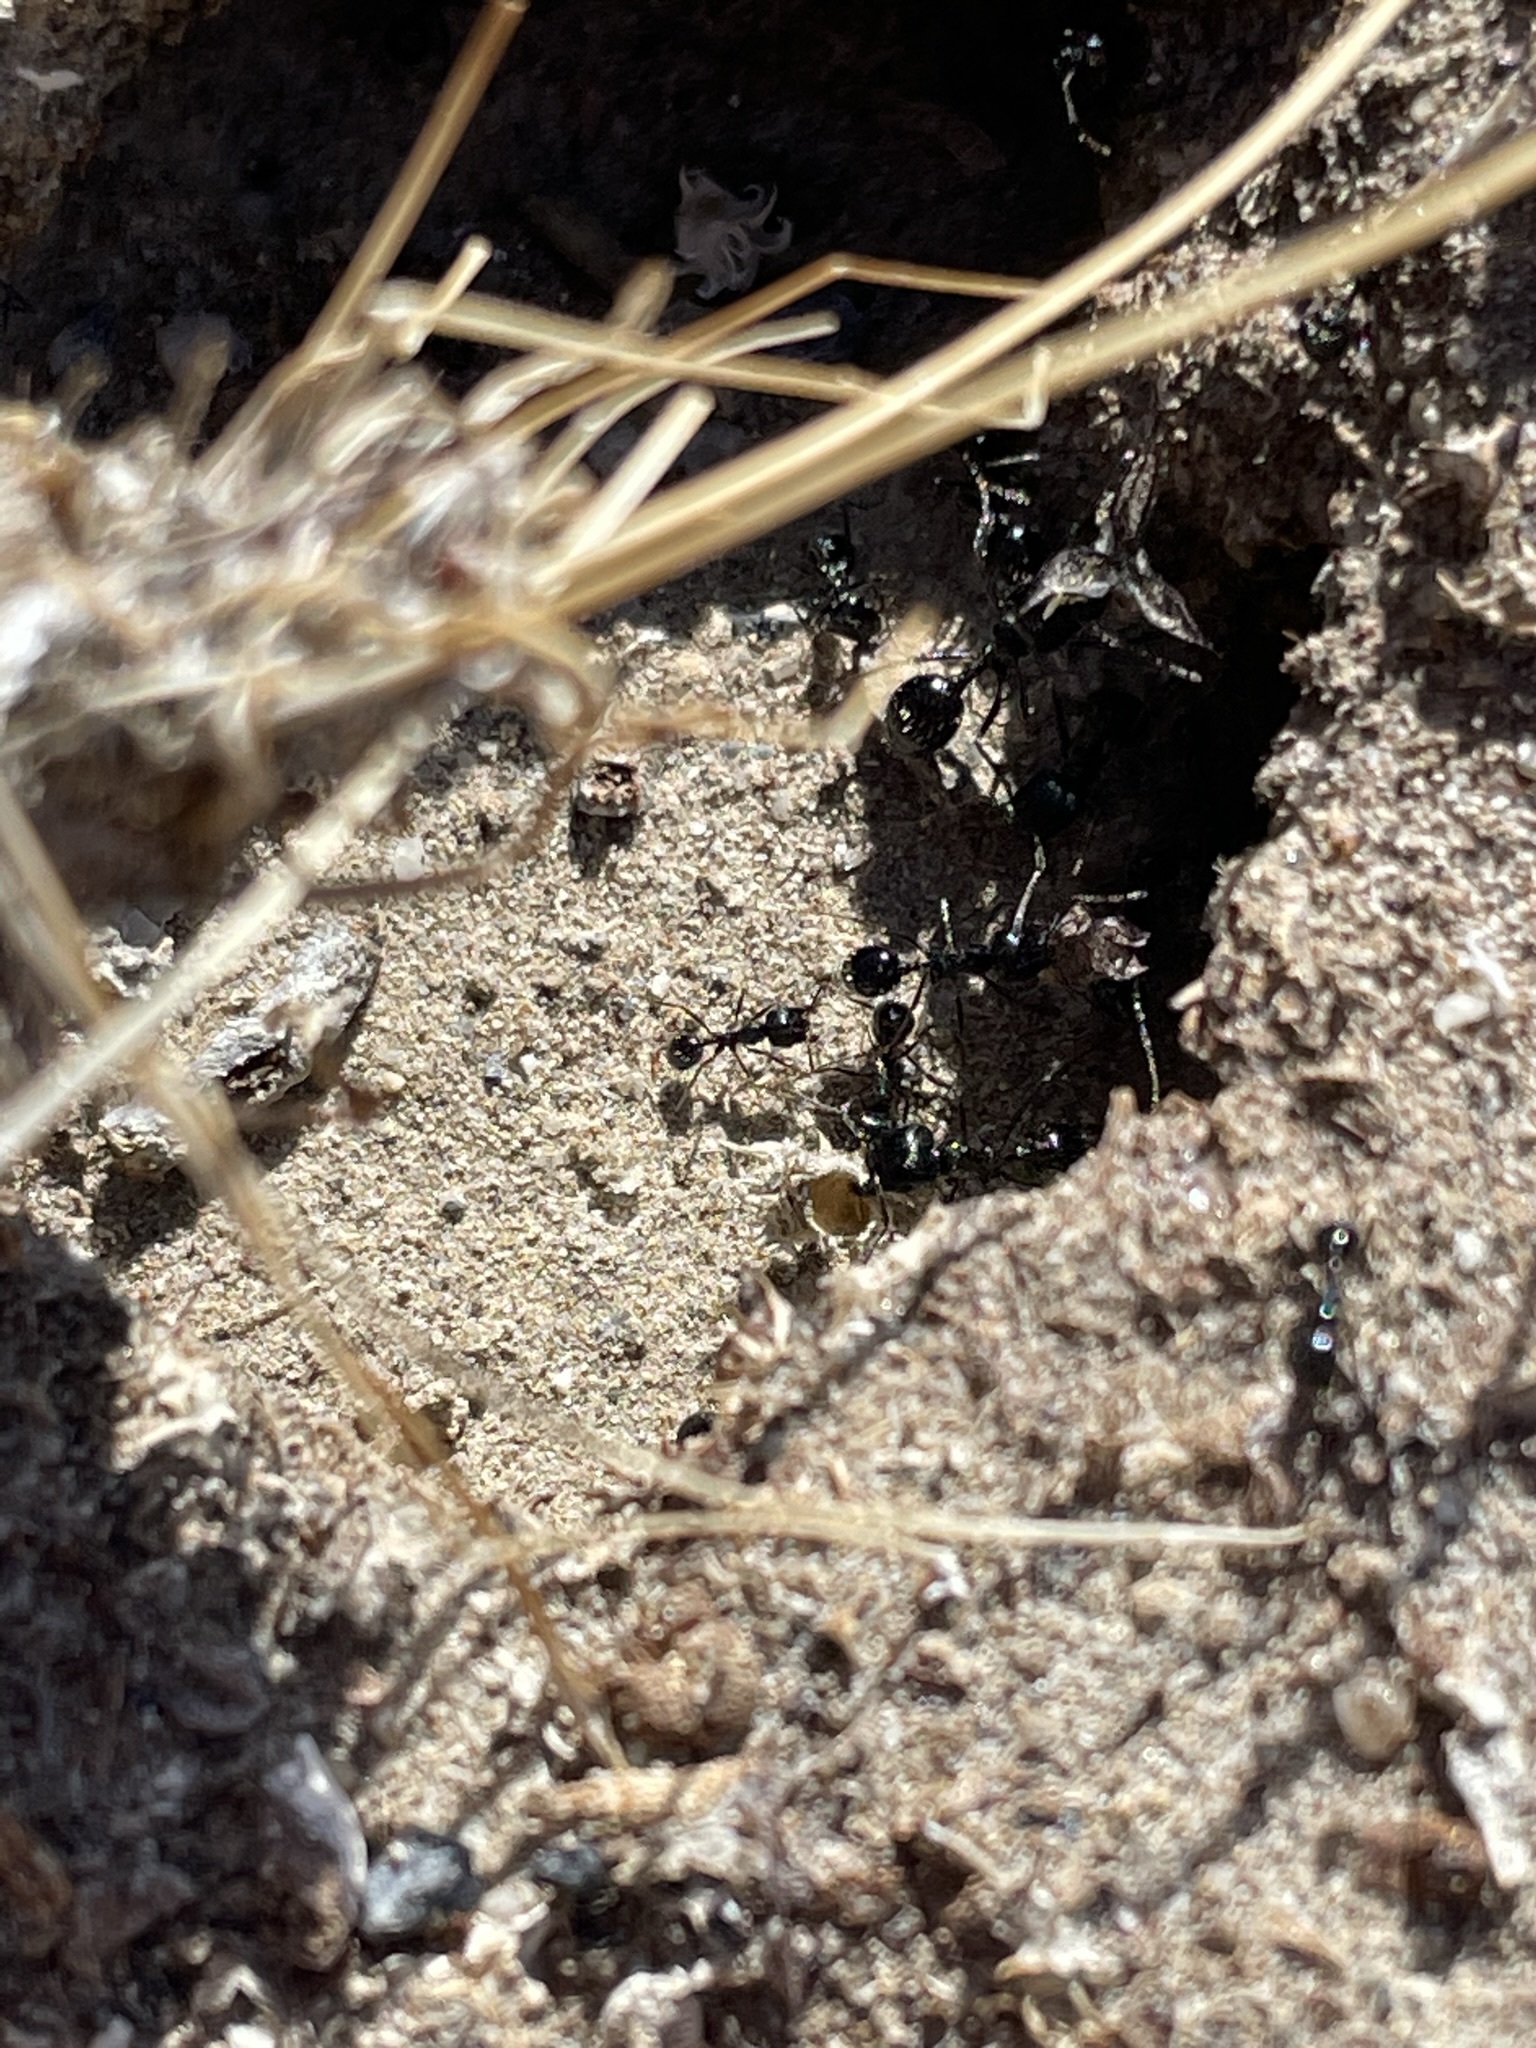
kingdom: Animalia
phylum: Arthropoda
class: Insecta
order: Hymenoptera
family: Formicidae
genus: Messor
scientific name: Messor pergandei
